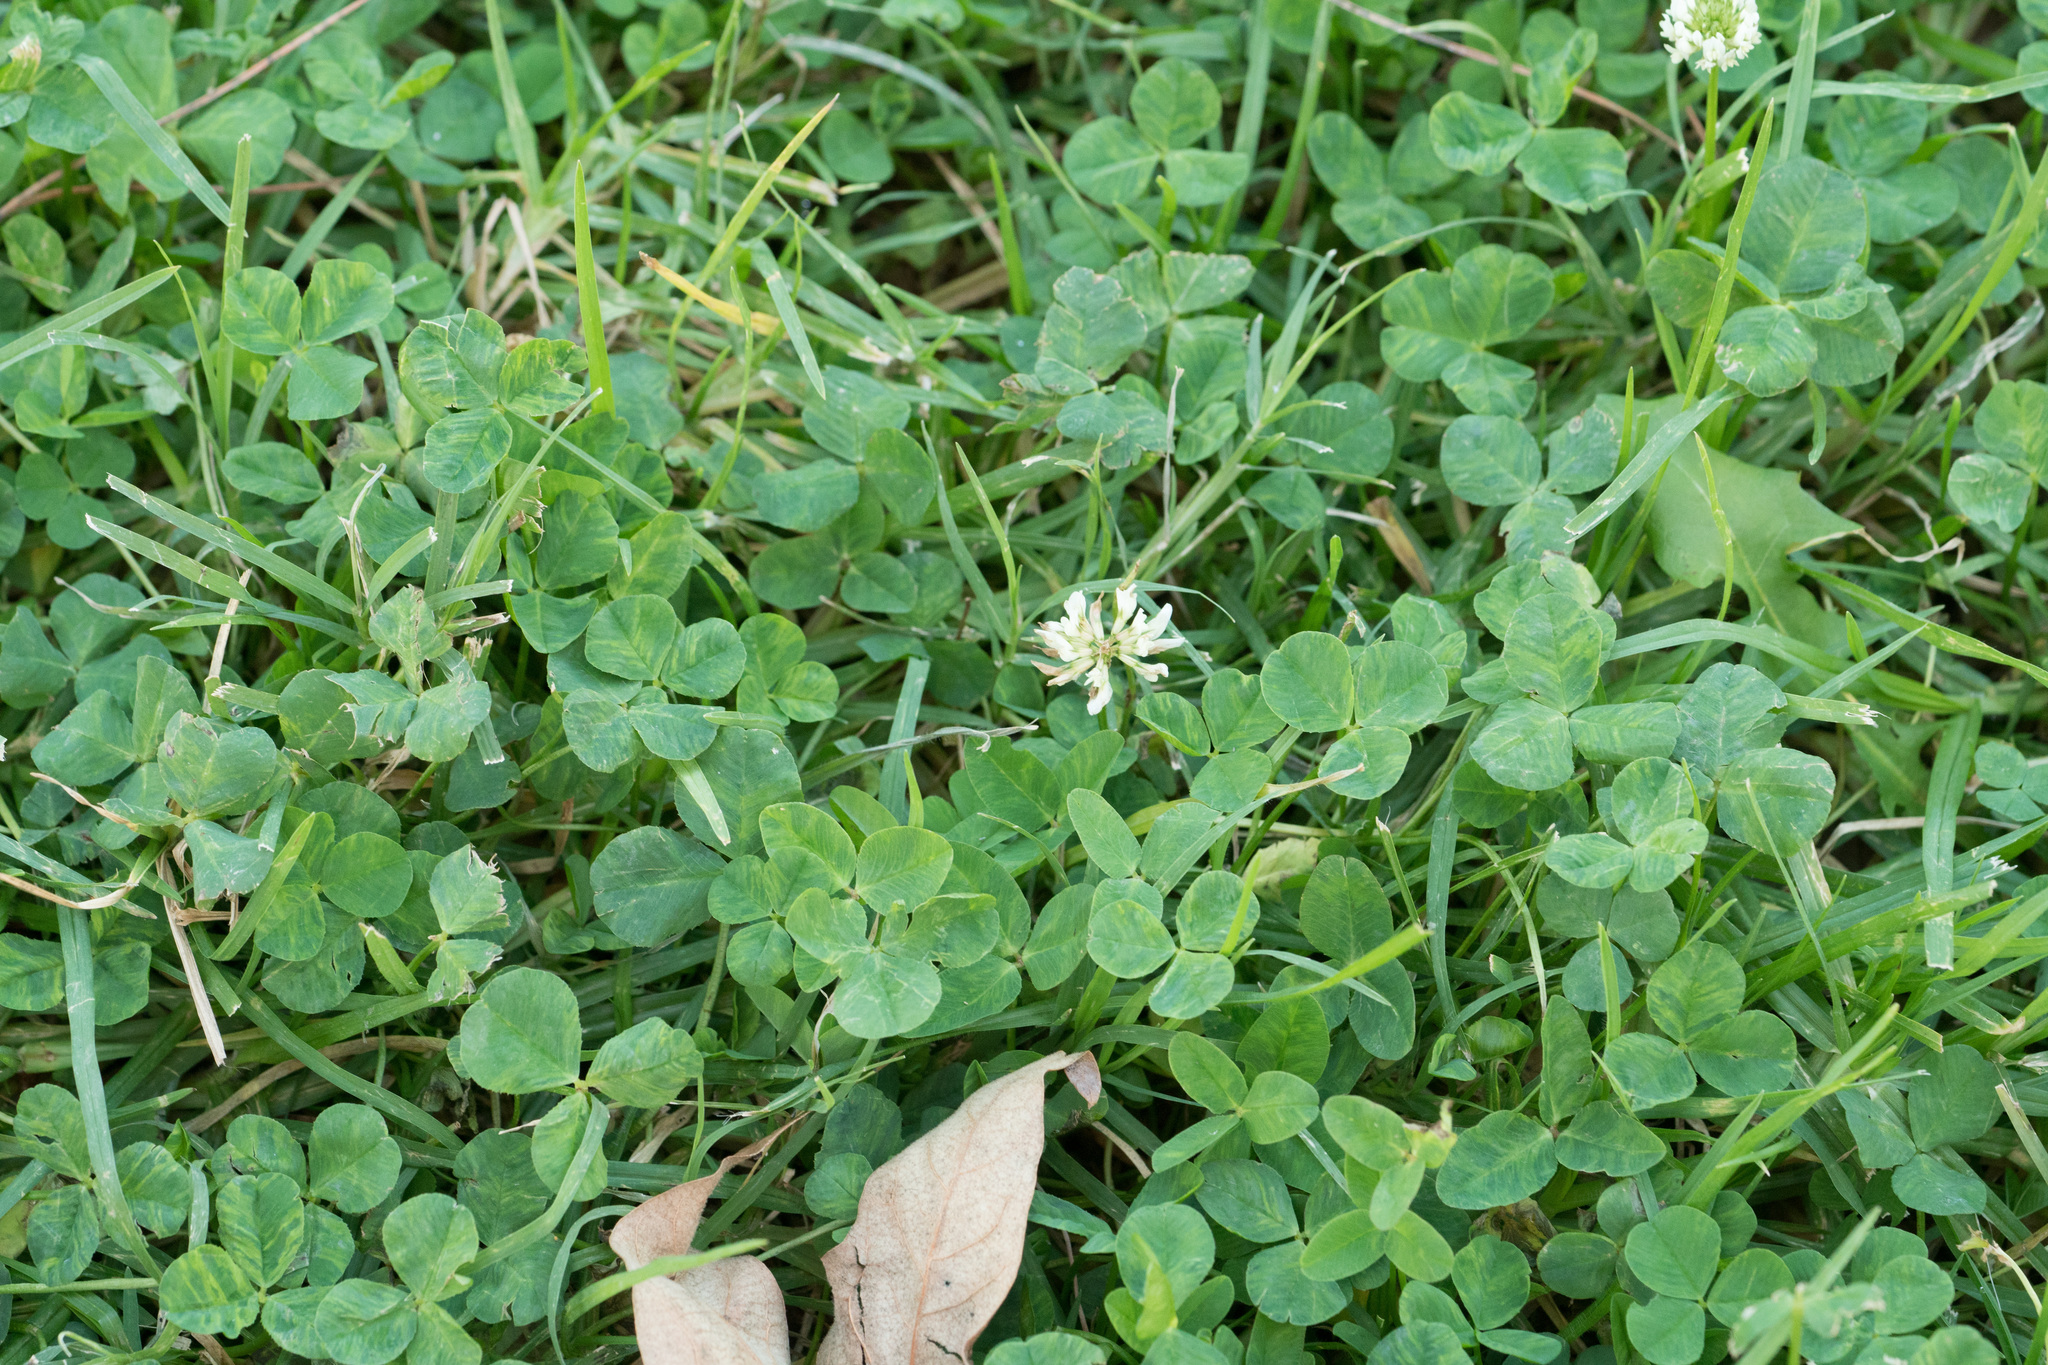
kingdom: Plantae
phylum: Tracheophyta
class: Magnoliopsida
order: Fabales
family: Fabaceae
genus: Trifolium
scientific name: Trifolium repens
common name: White clover
